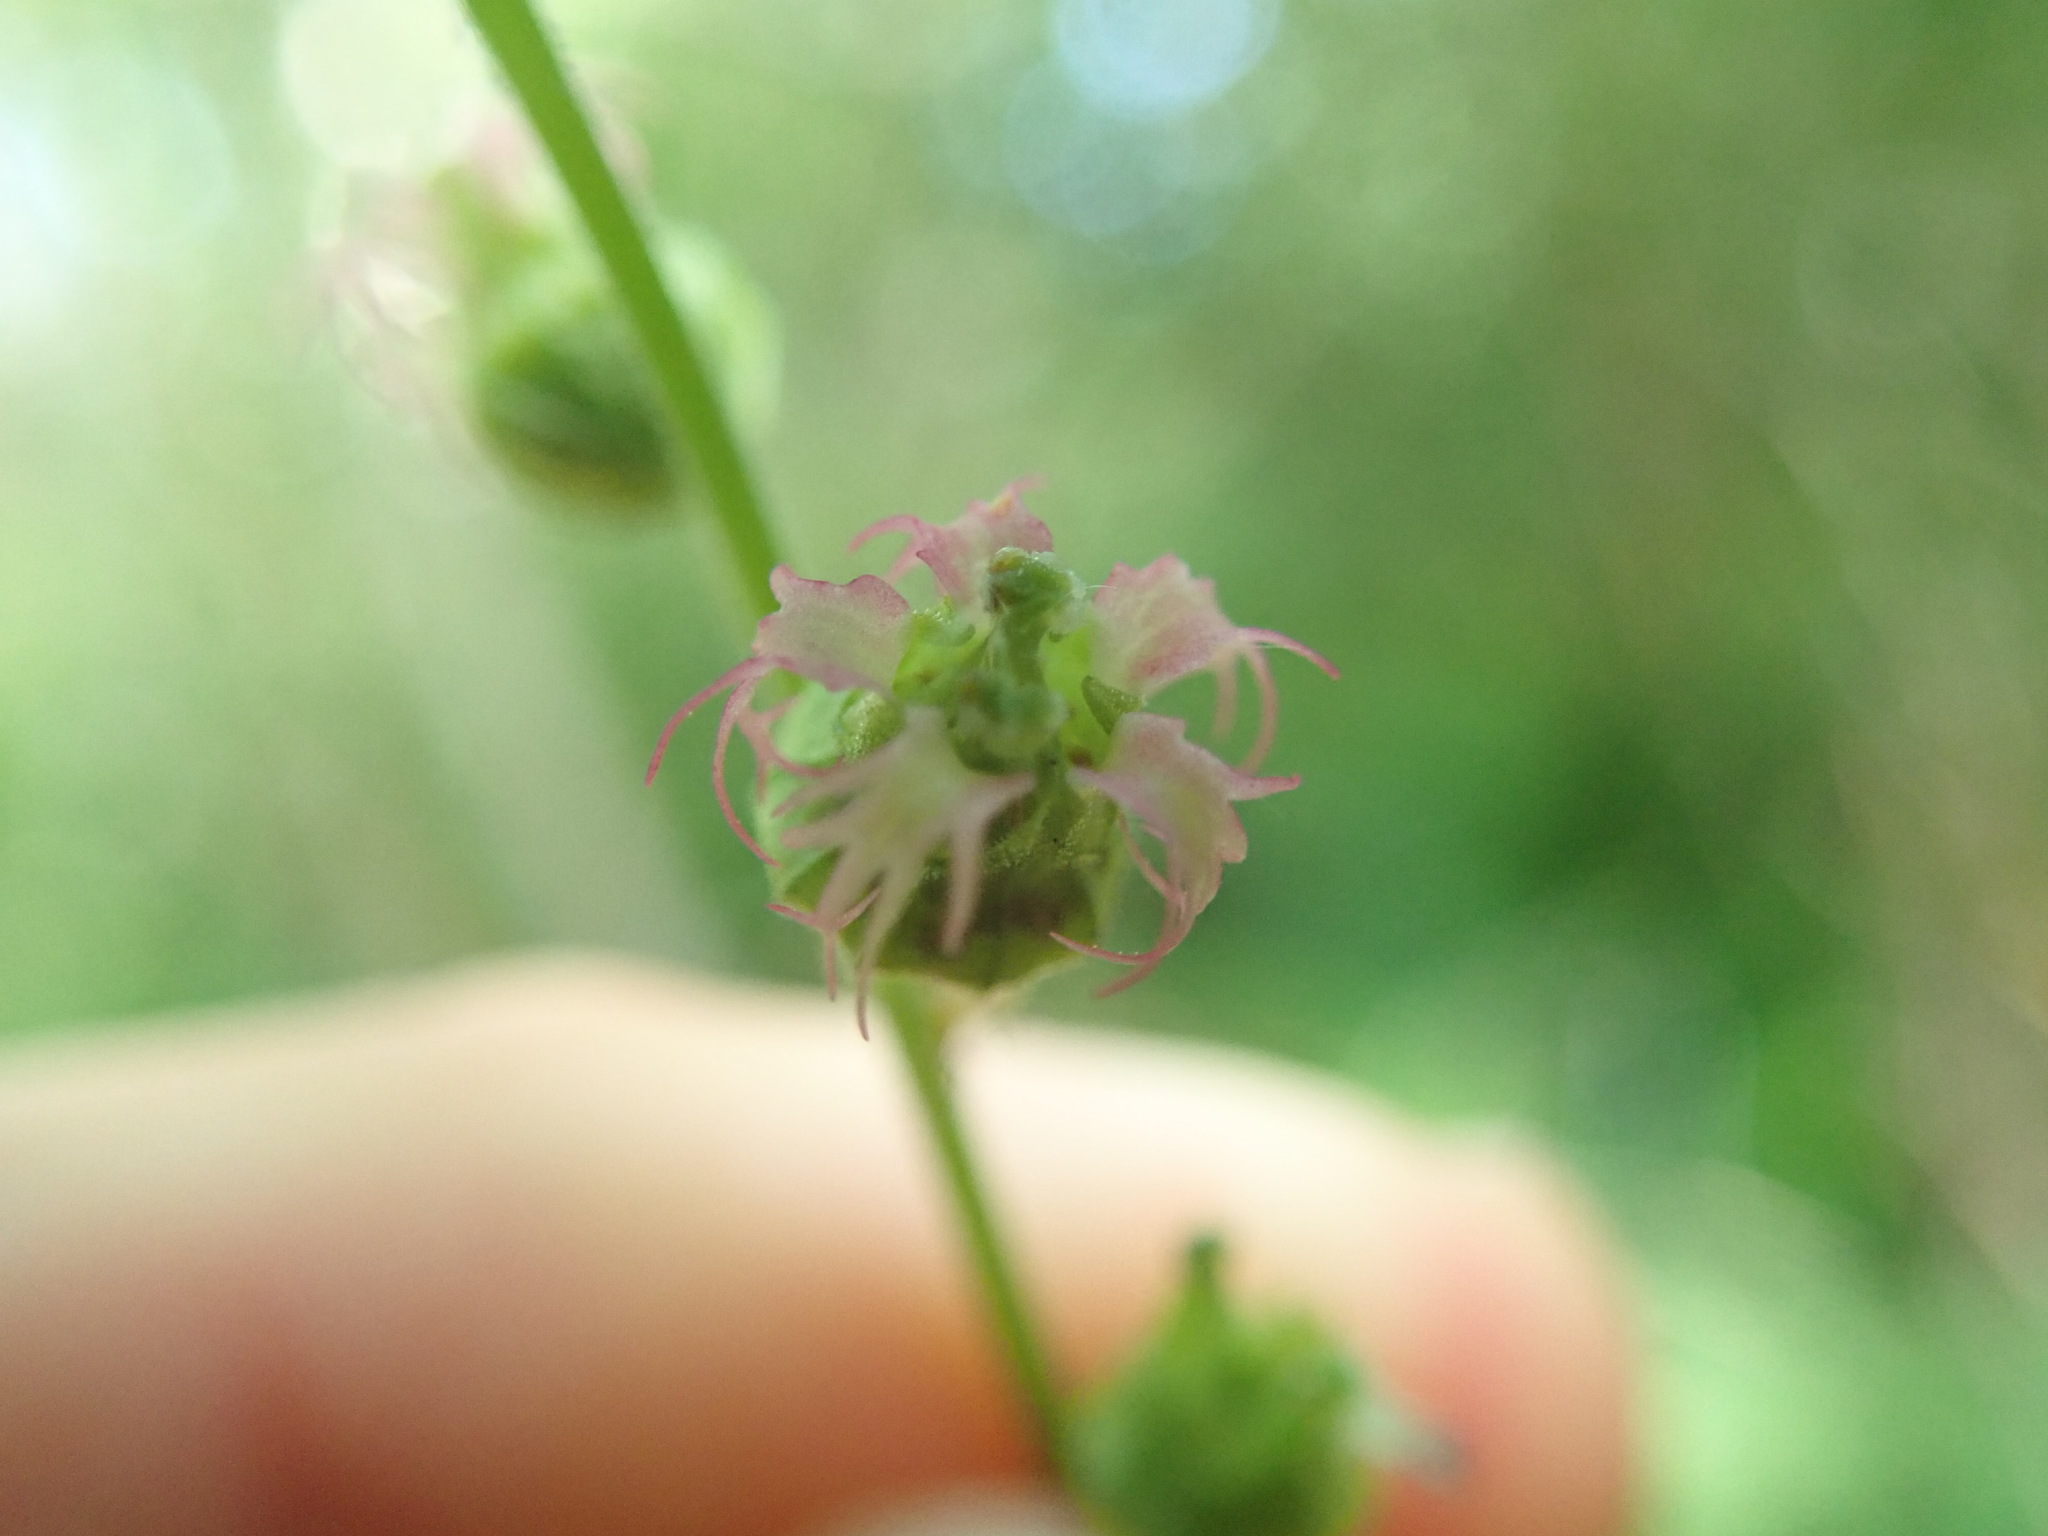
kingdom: Plantae
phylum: Tracheophyta
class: Magnoliopsida
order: Saxifragales
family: Saxifragaceae
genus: Tellima
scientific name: Tellima grandiflora
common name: Fringecups
